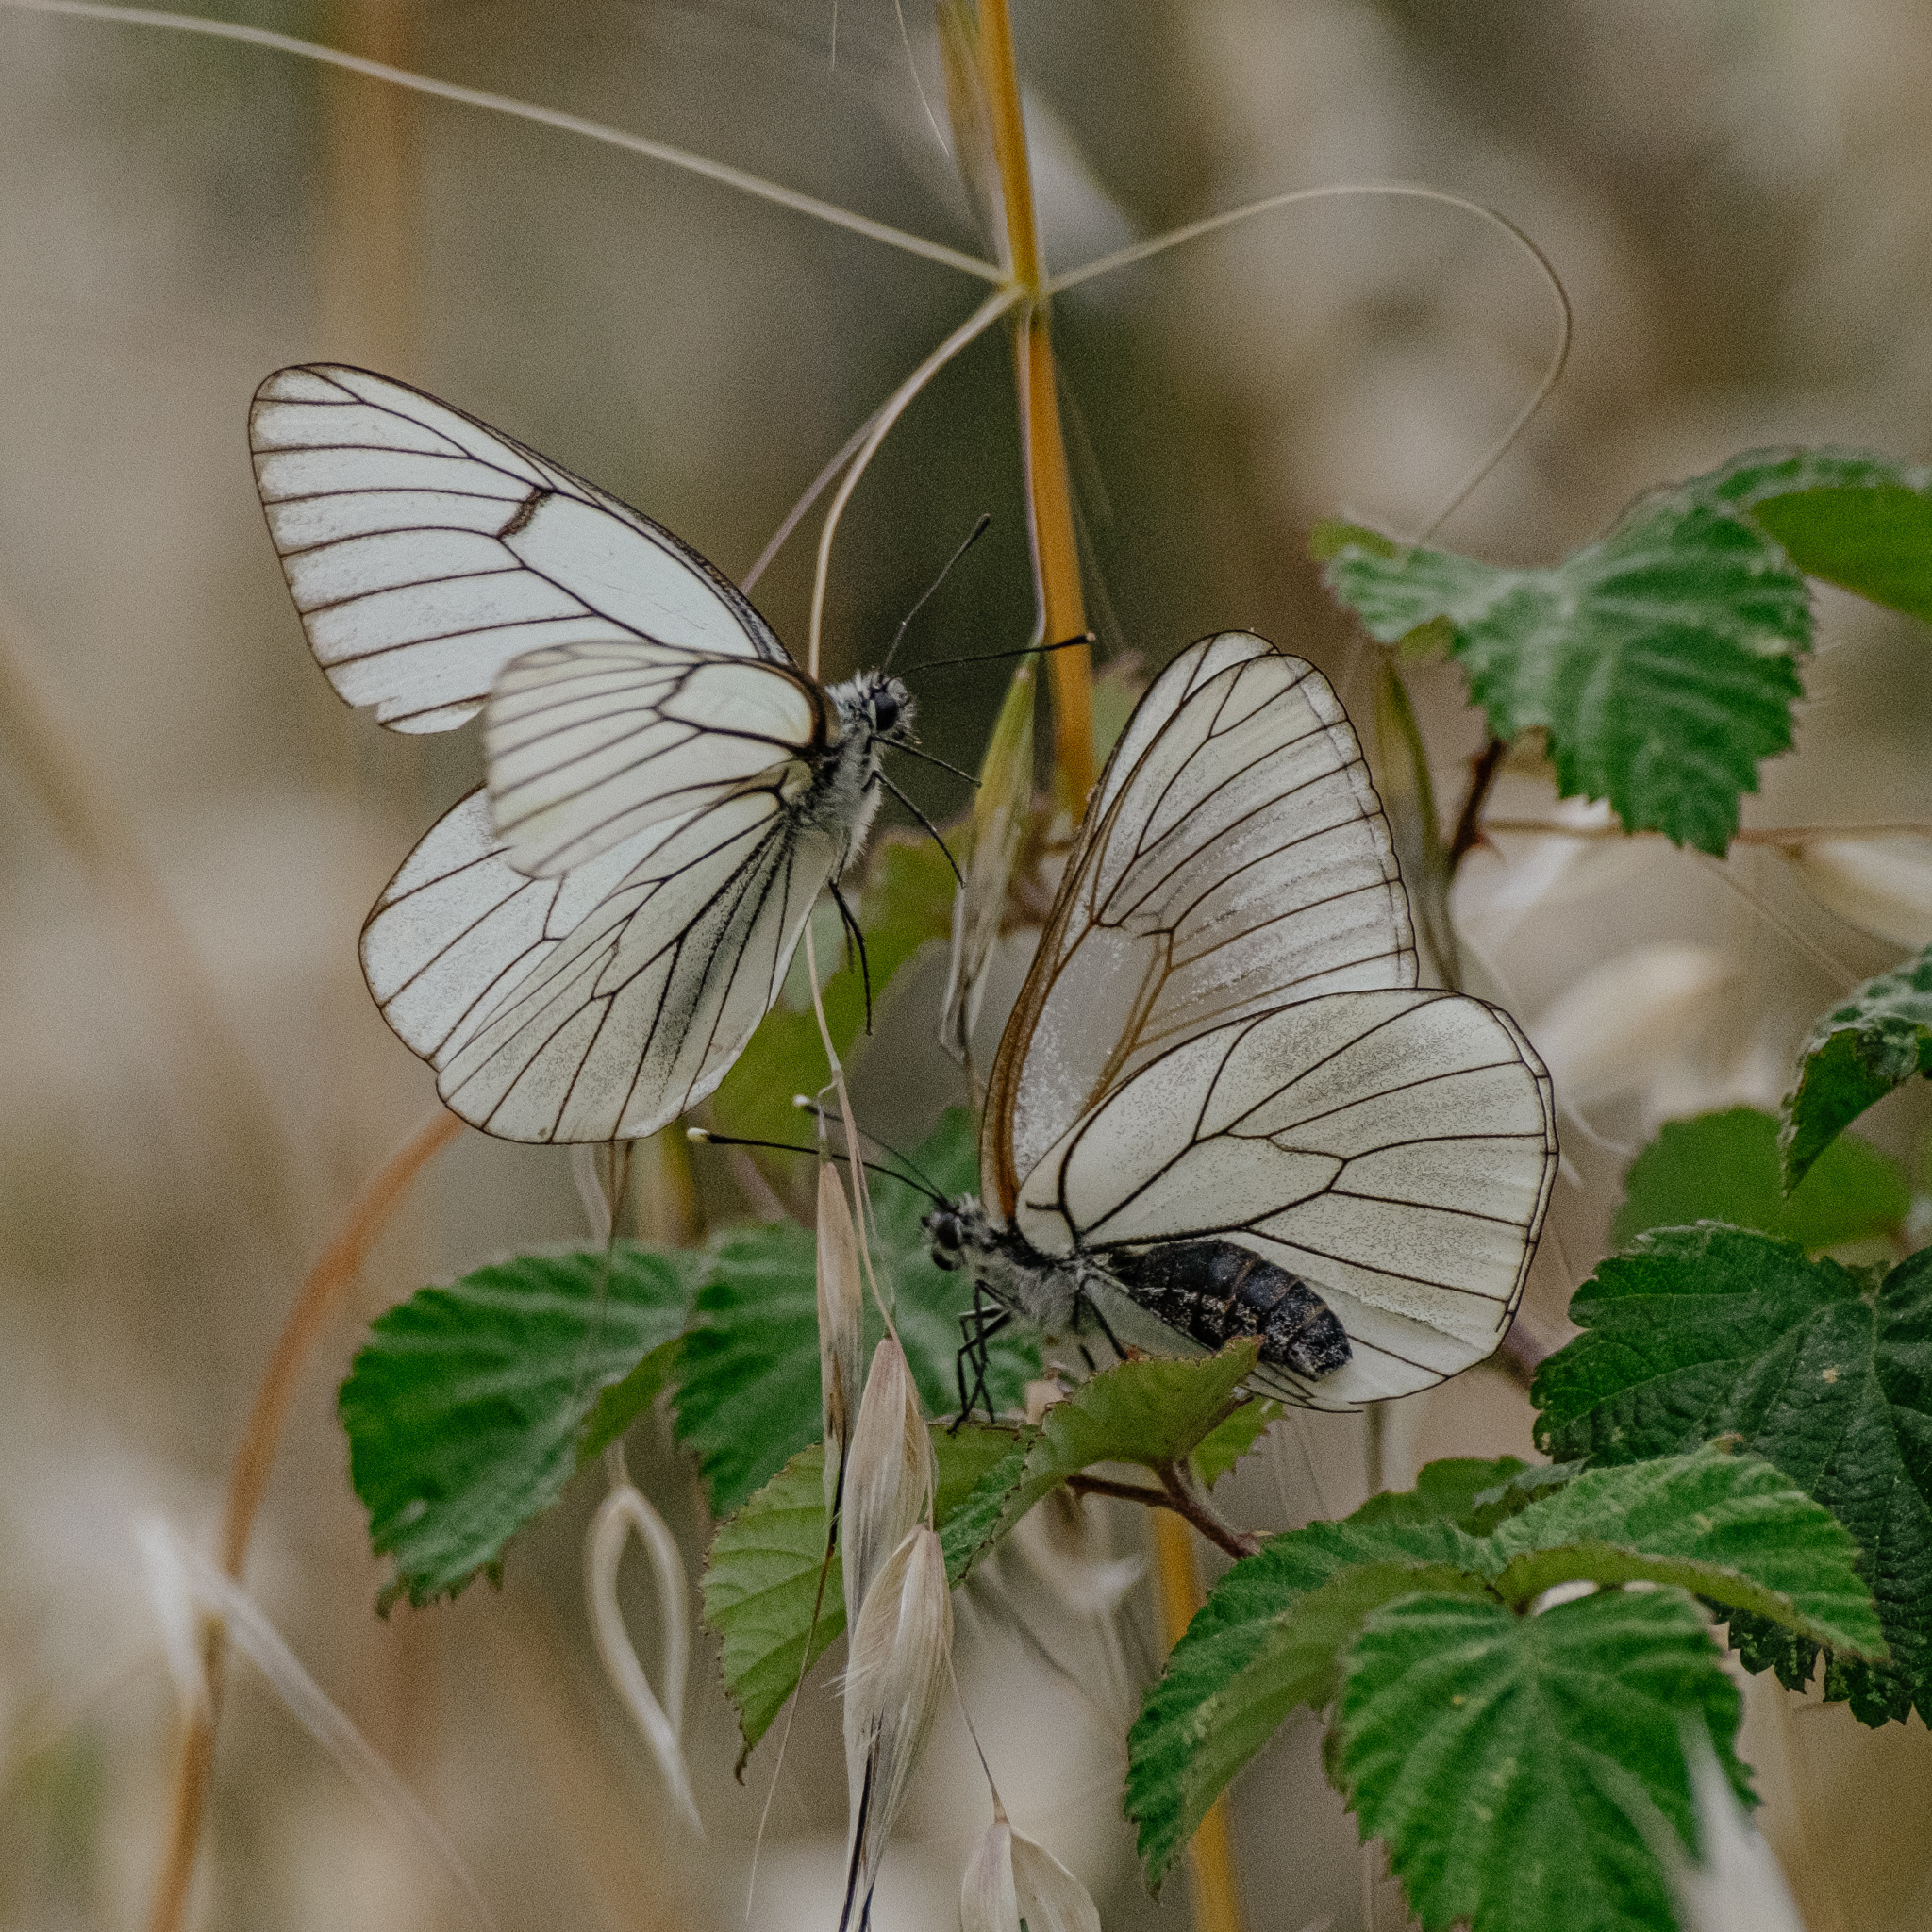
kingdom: Animalia
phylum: Arthropoda
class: Insecta
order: Lepidoptera
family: Pieridae
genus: Aporia
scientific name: Aporia crataegi
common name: Black-veined white
